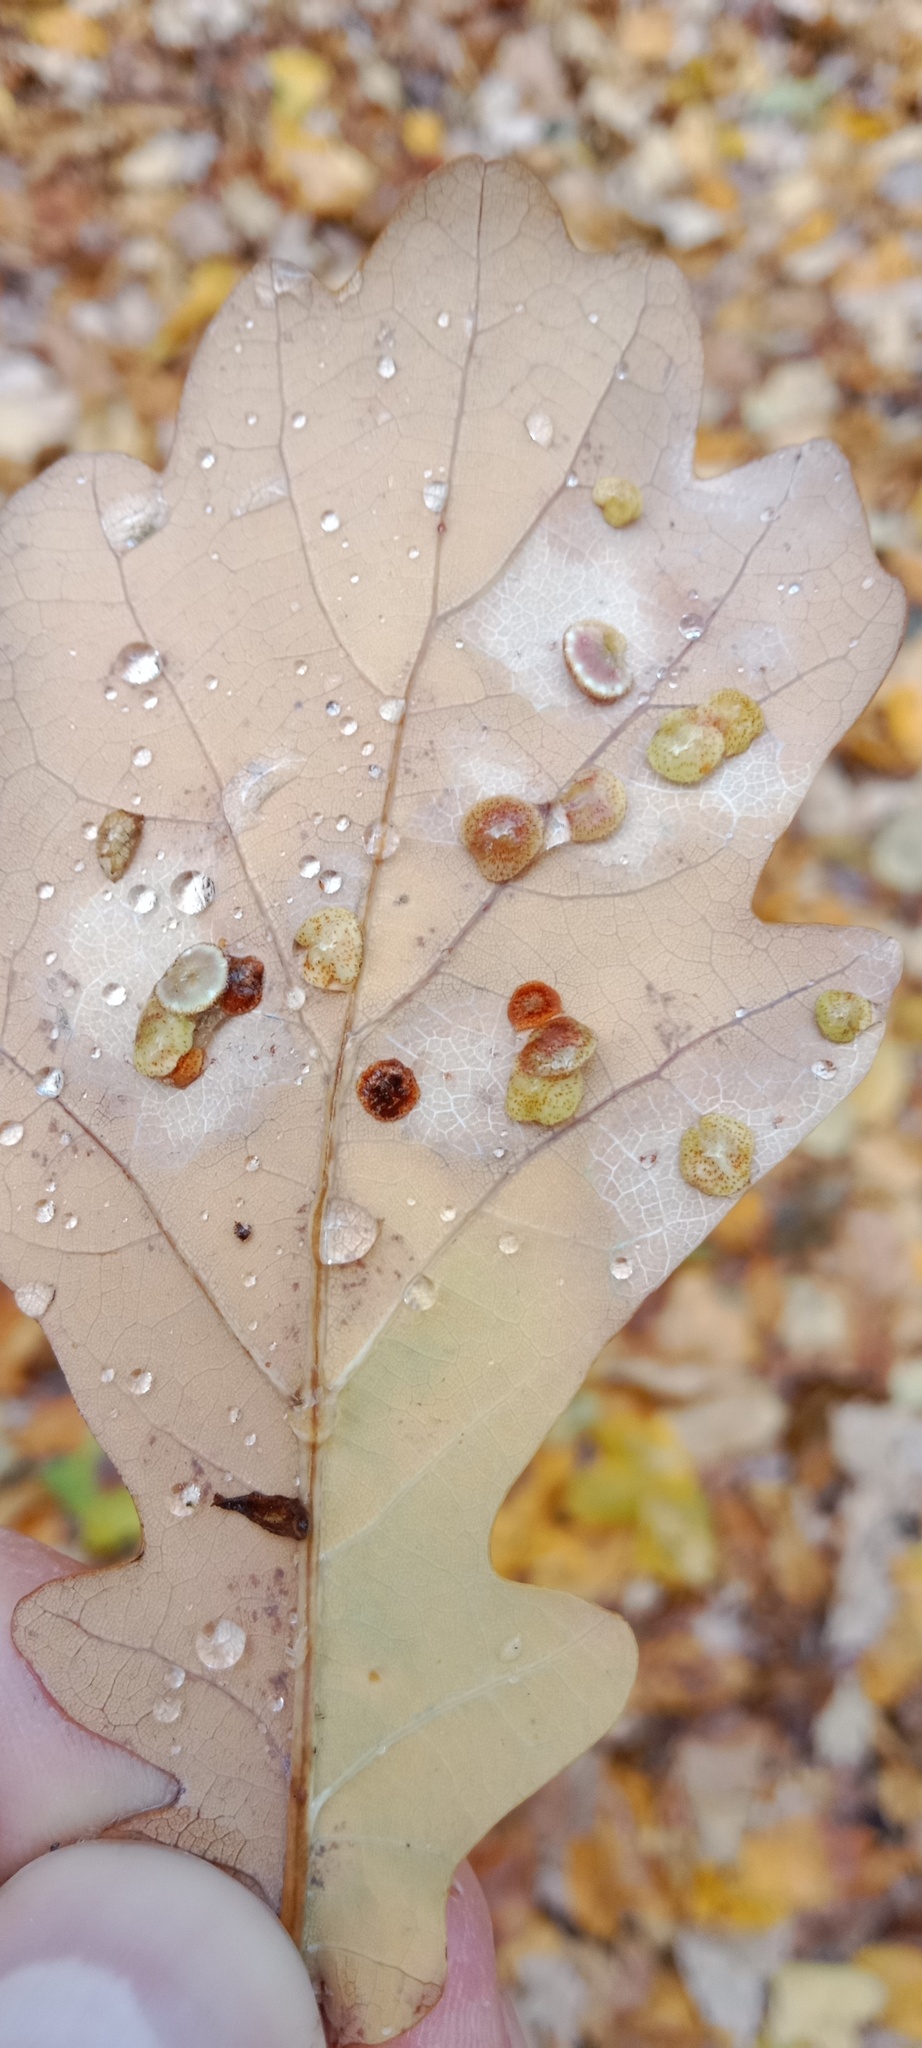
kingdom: Animalia
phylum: Arthropoda
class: Insecta
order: Hymenoptera
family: Cynipidae
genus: Neuroterus
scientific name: Neuroterus quercusbaccarum
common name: Common spangle gall
